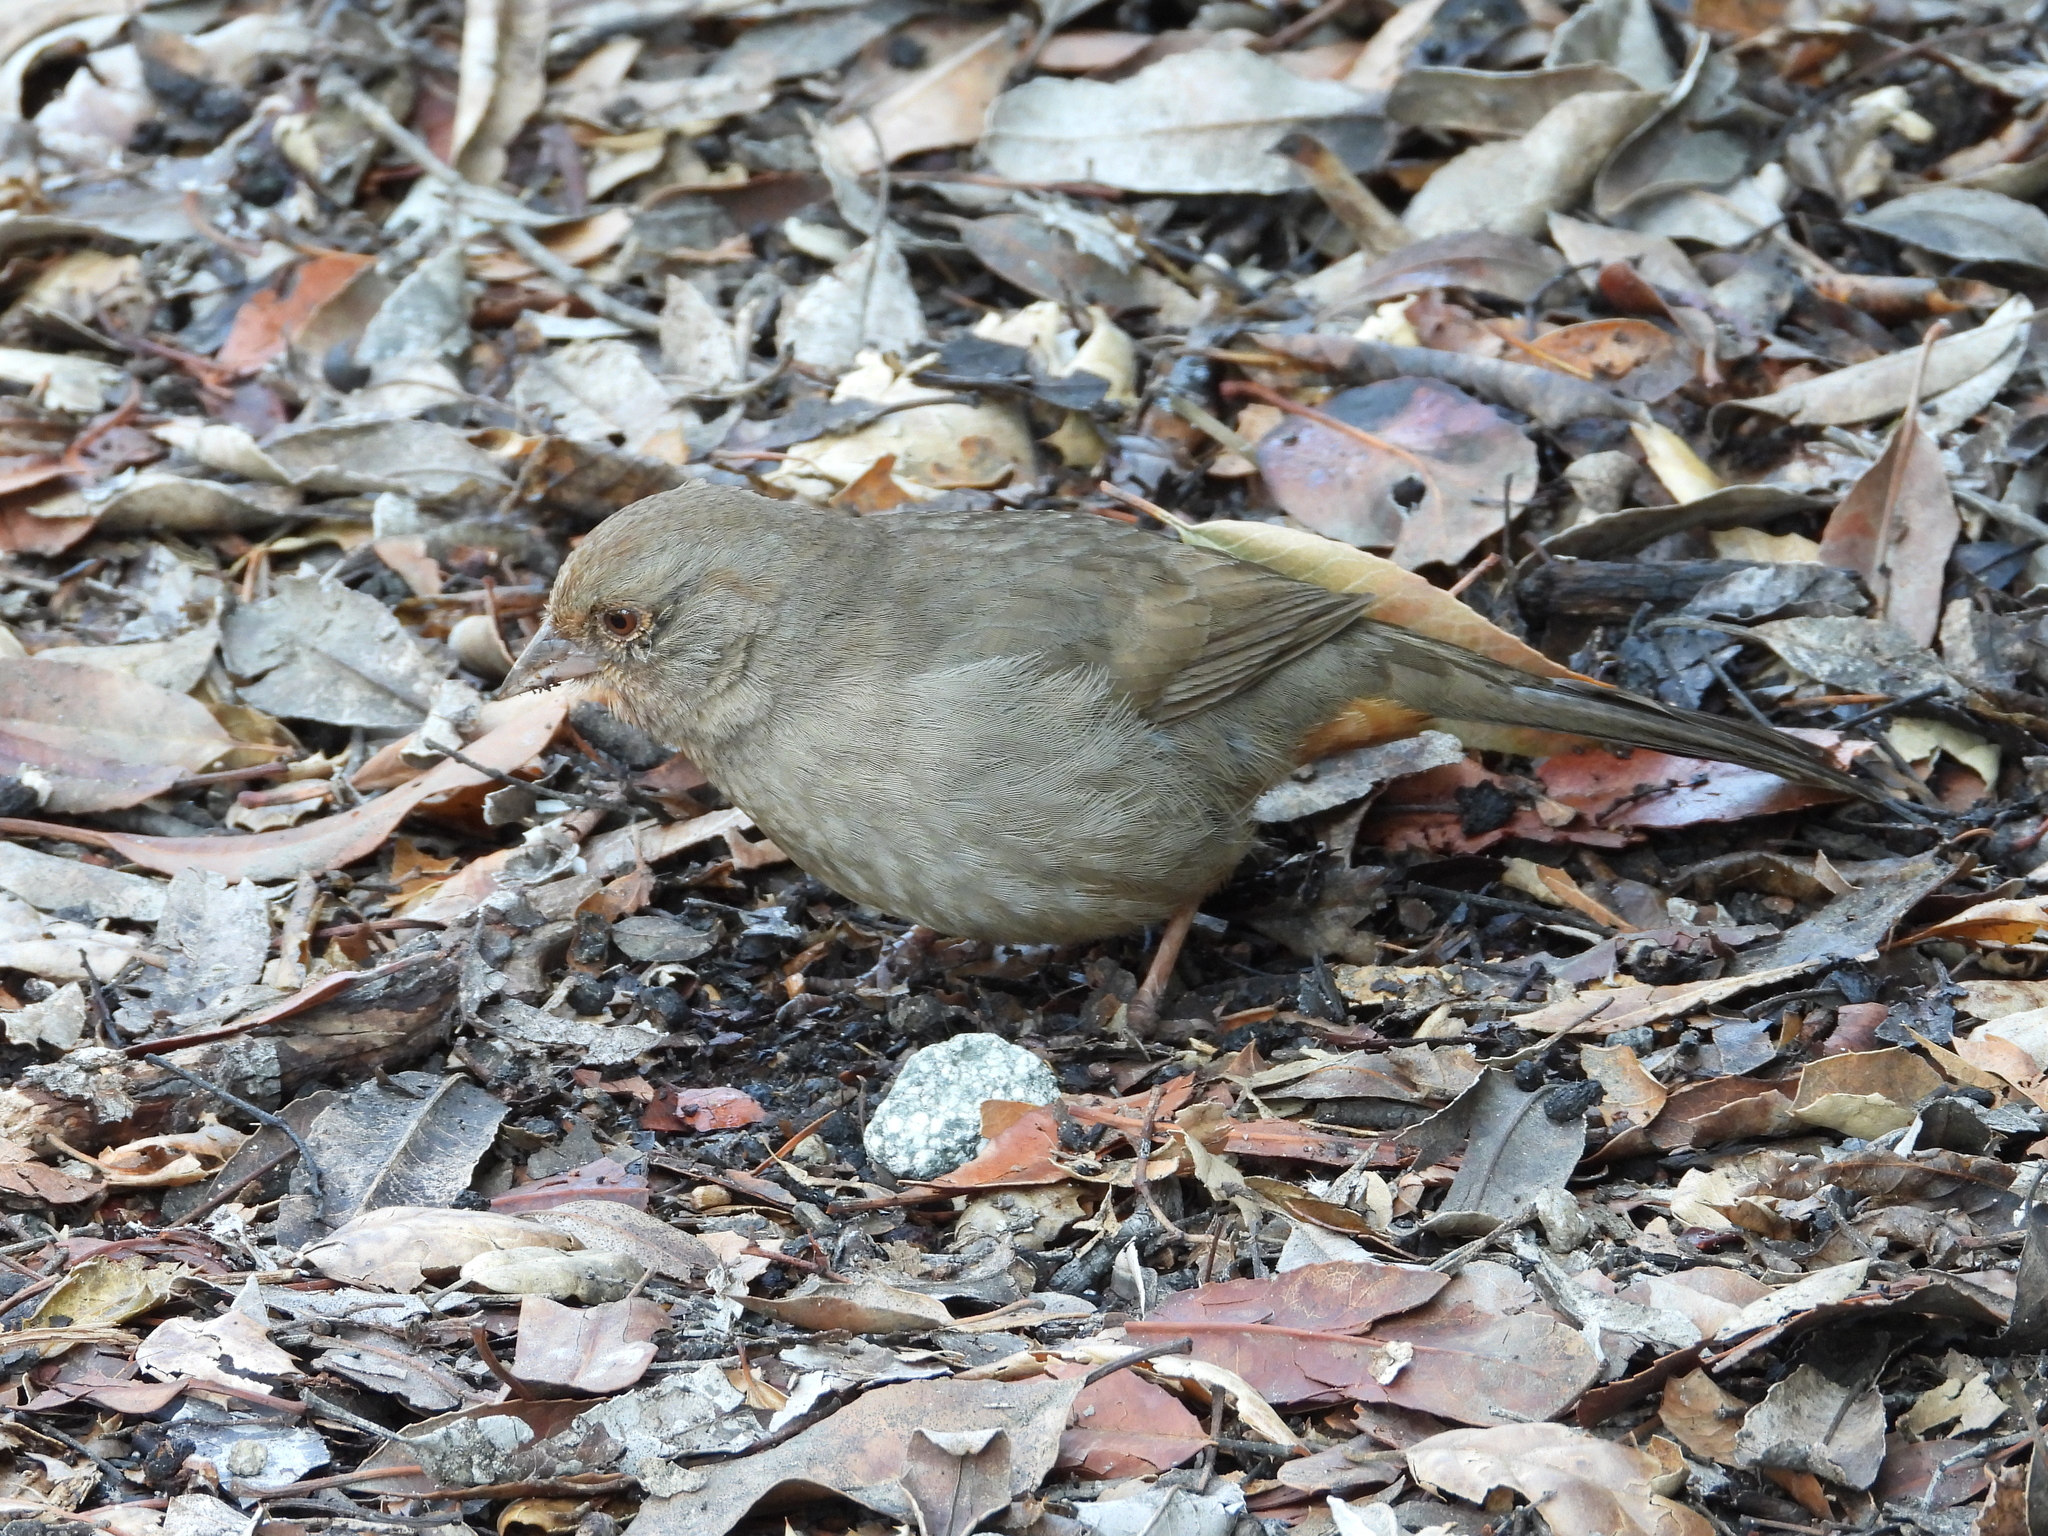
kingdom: Animalia
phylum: Chordata
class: Aves
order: Passeriformes
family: Passerellidae
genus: Melozone
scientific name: Melozone crissalis
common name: California towhee
